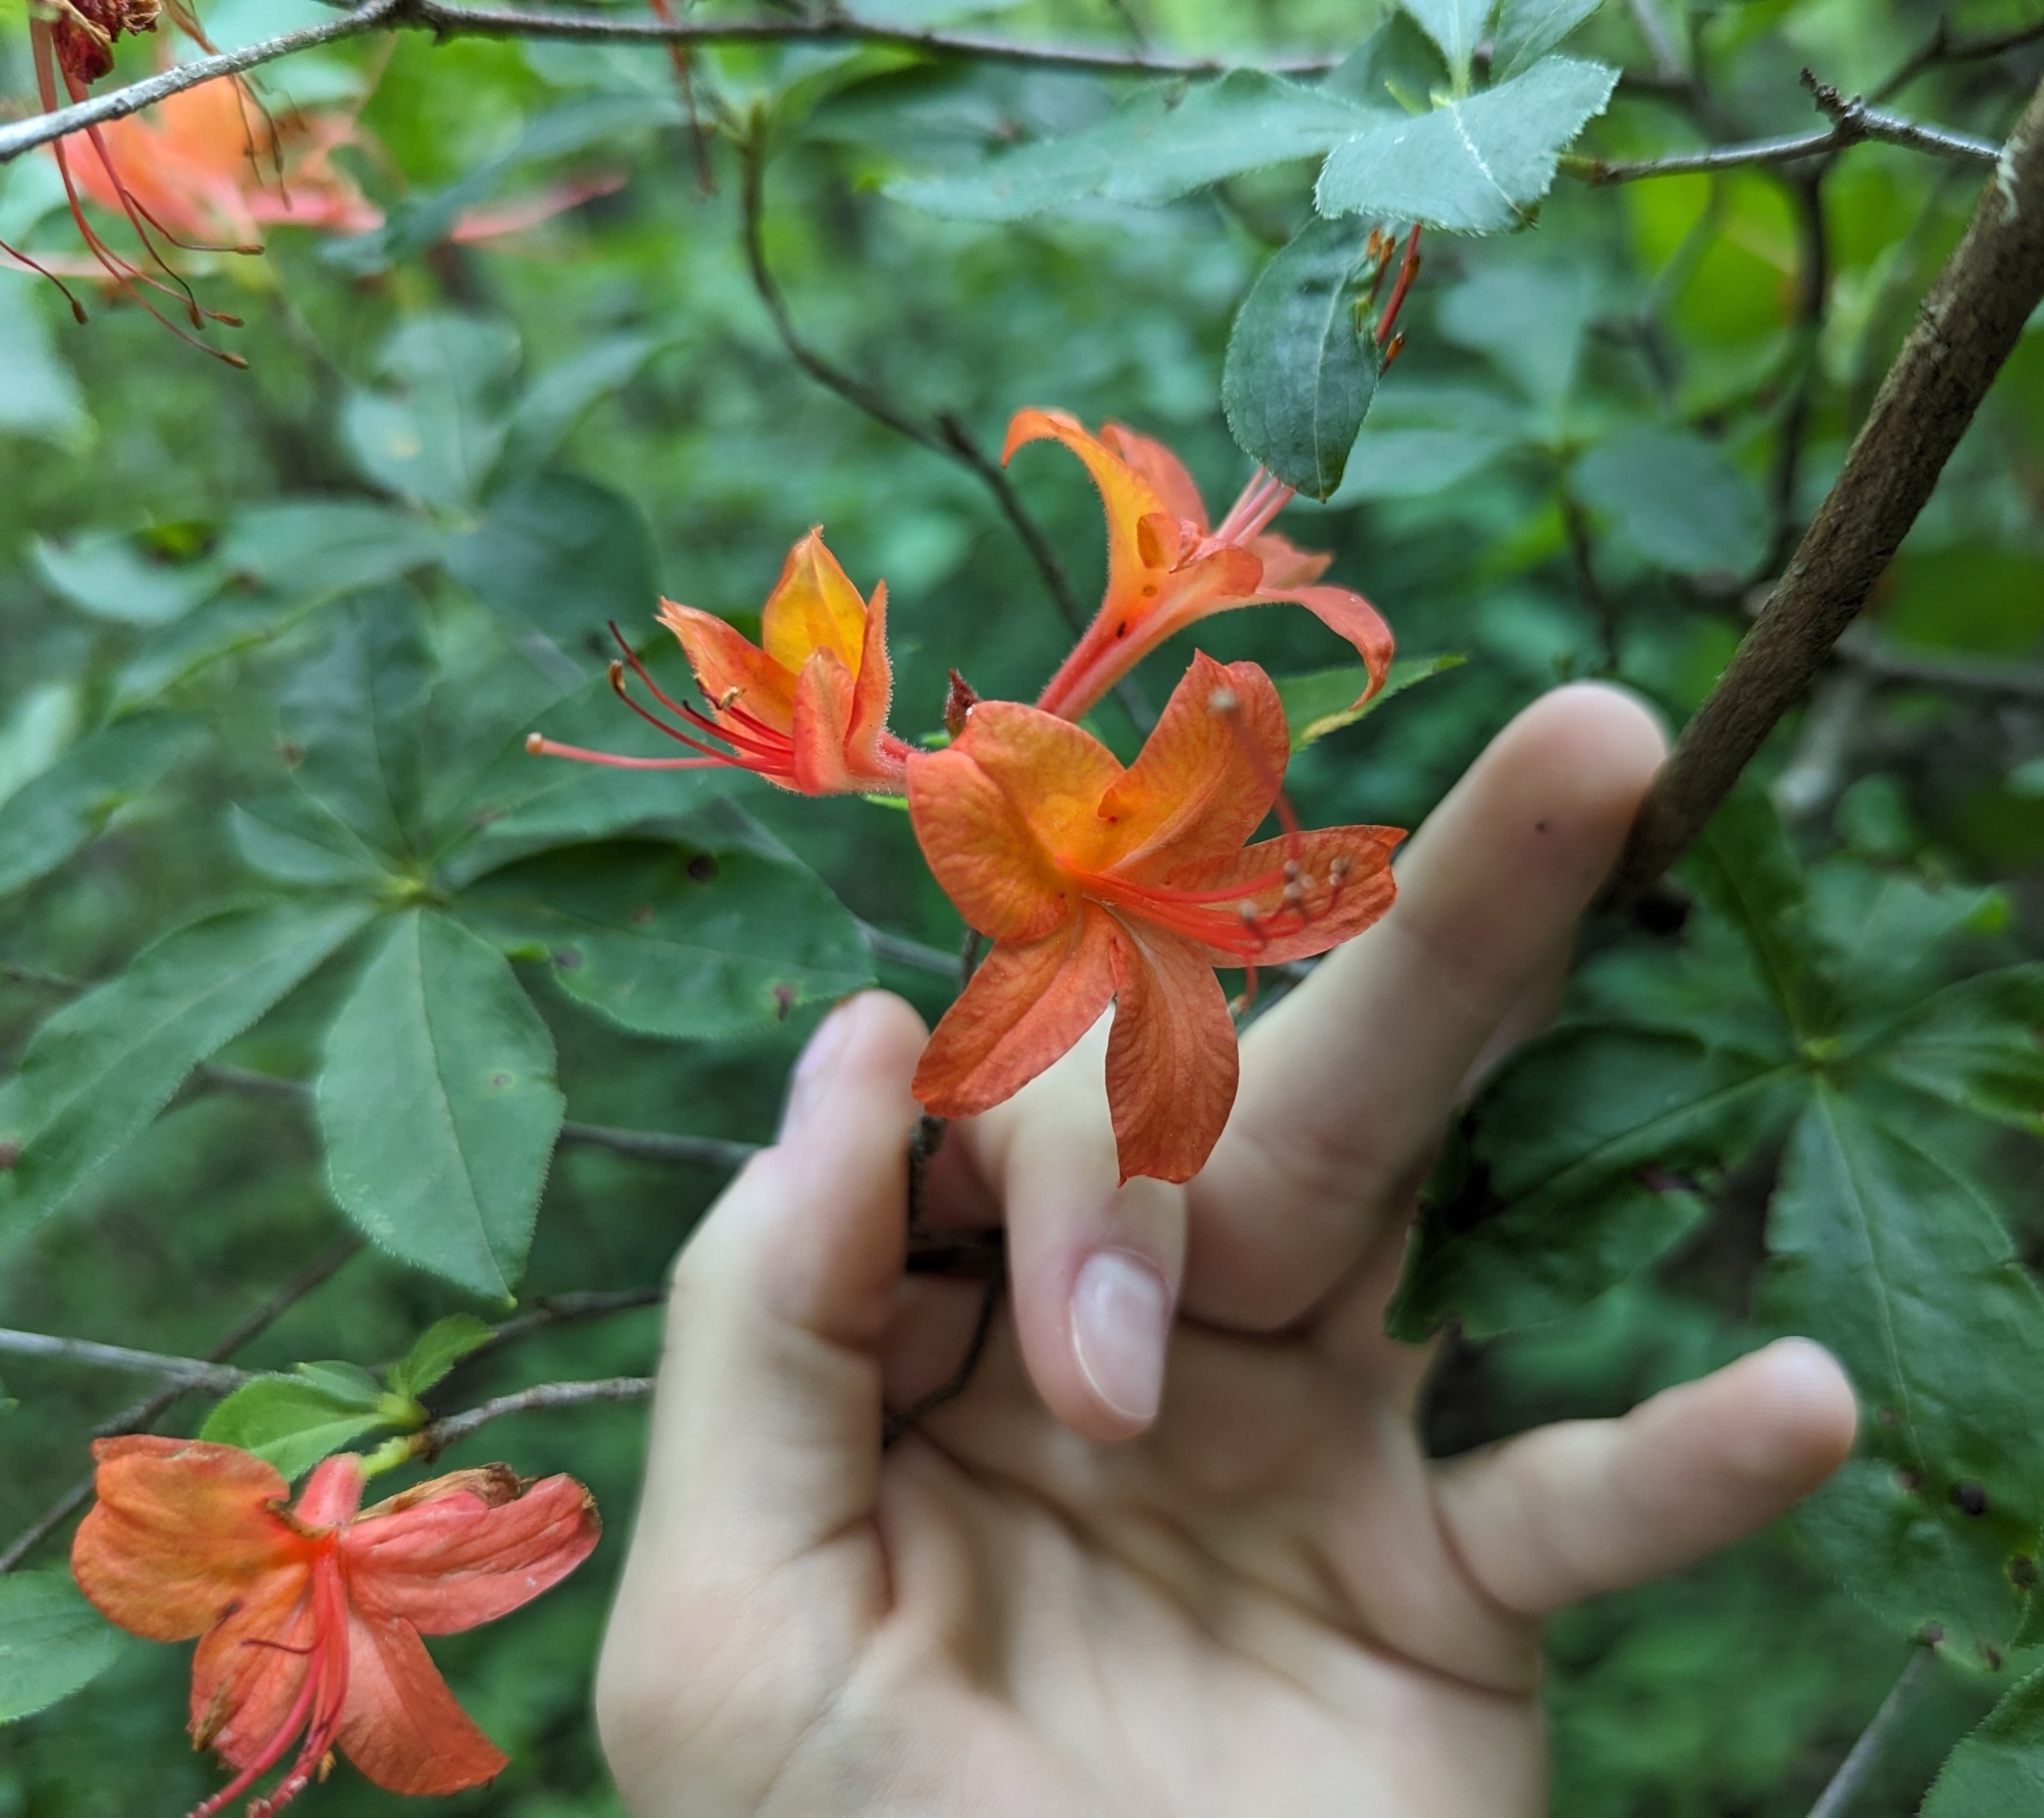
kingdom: Plantae
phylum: Tracheophyta
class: Magnoliopsida
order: Ericales
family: Ericaceae
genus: Rhododendron
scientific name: Rhododendron calendulaceum
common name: Flame azalea
